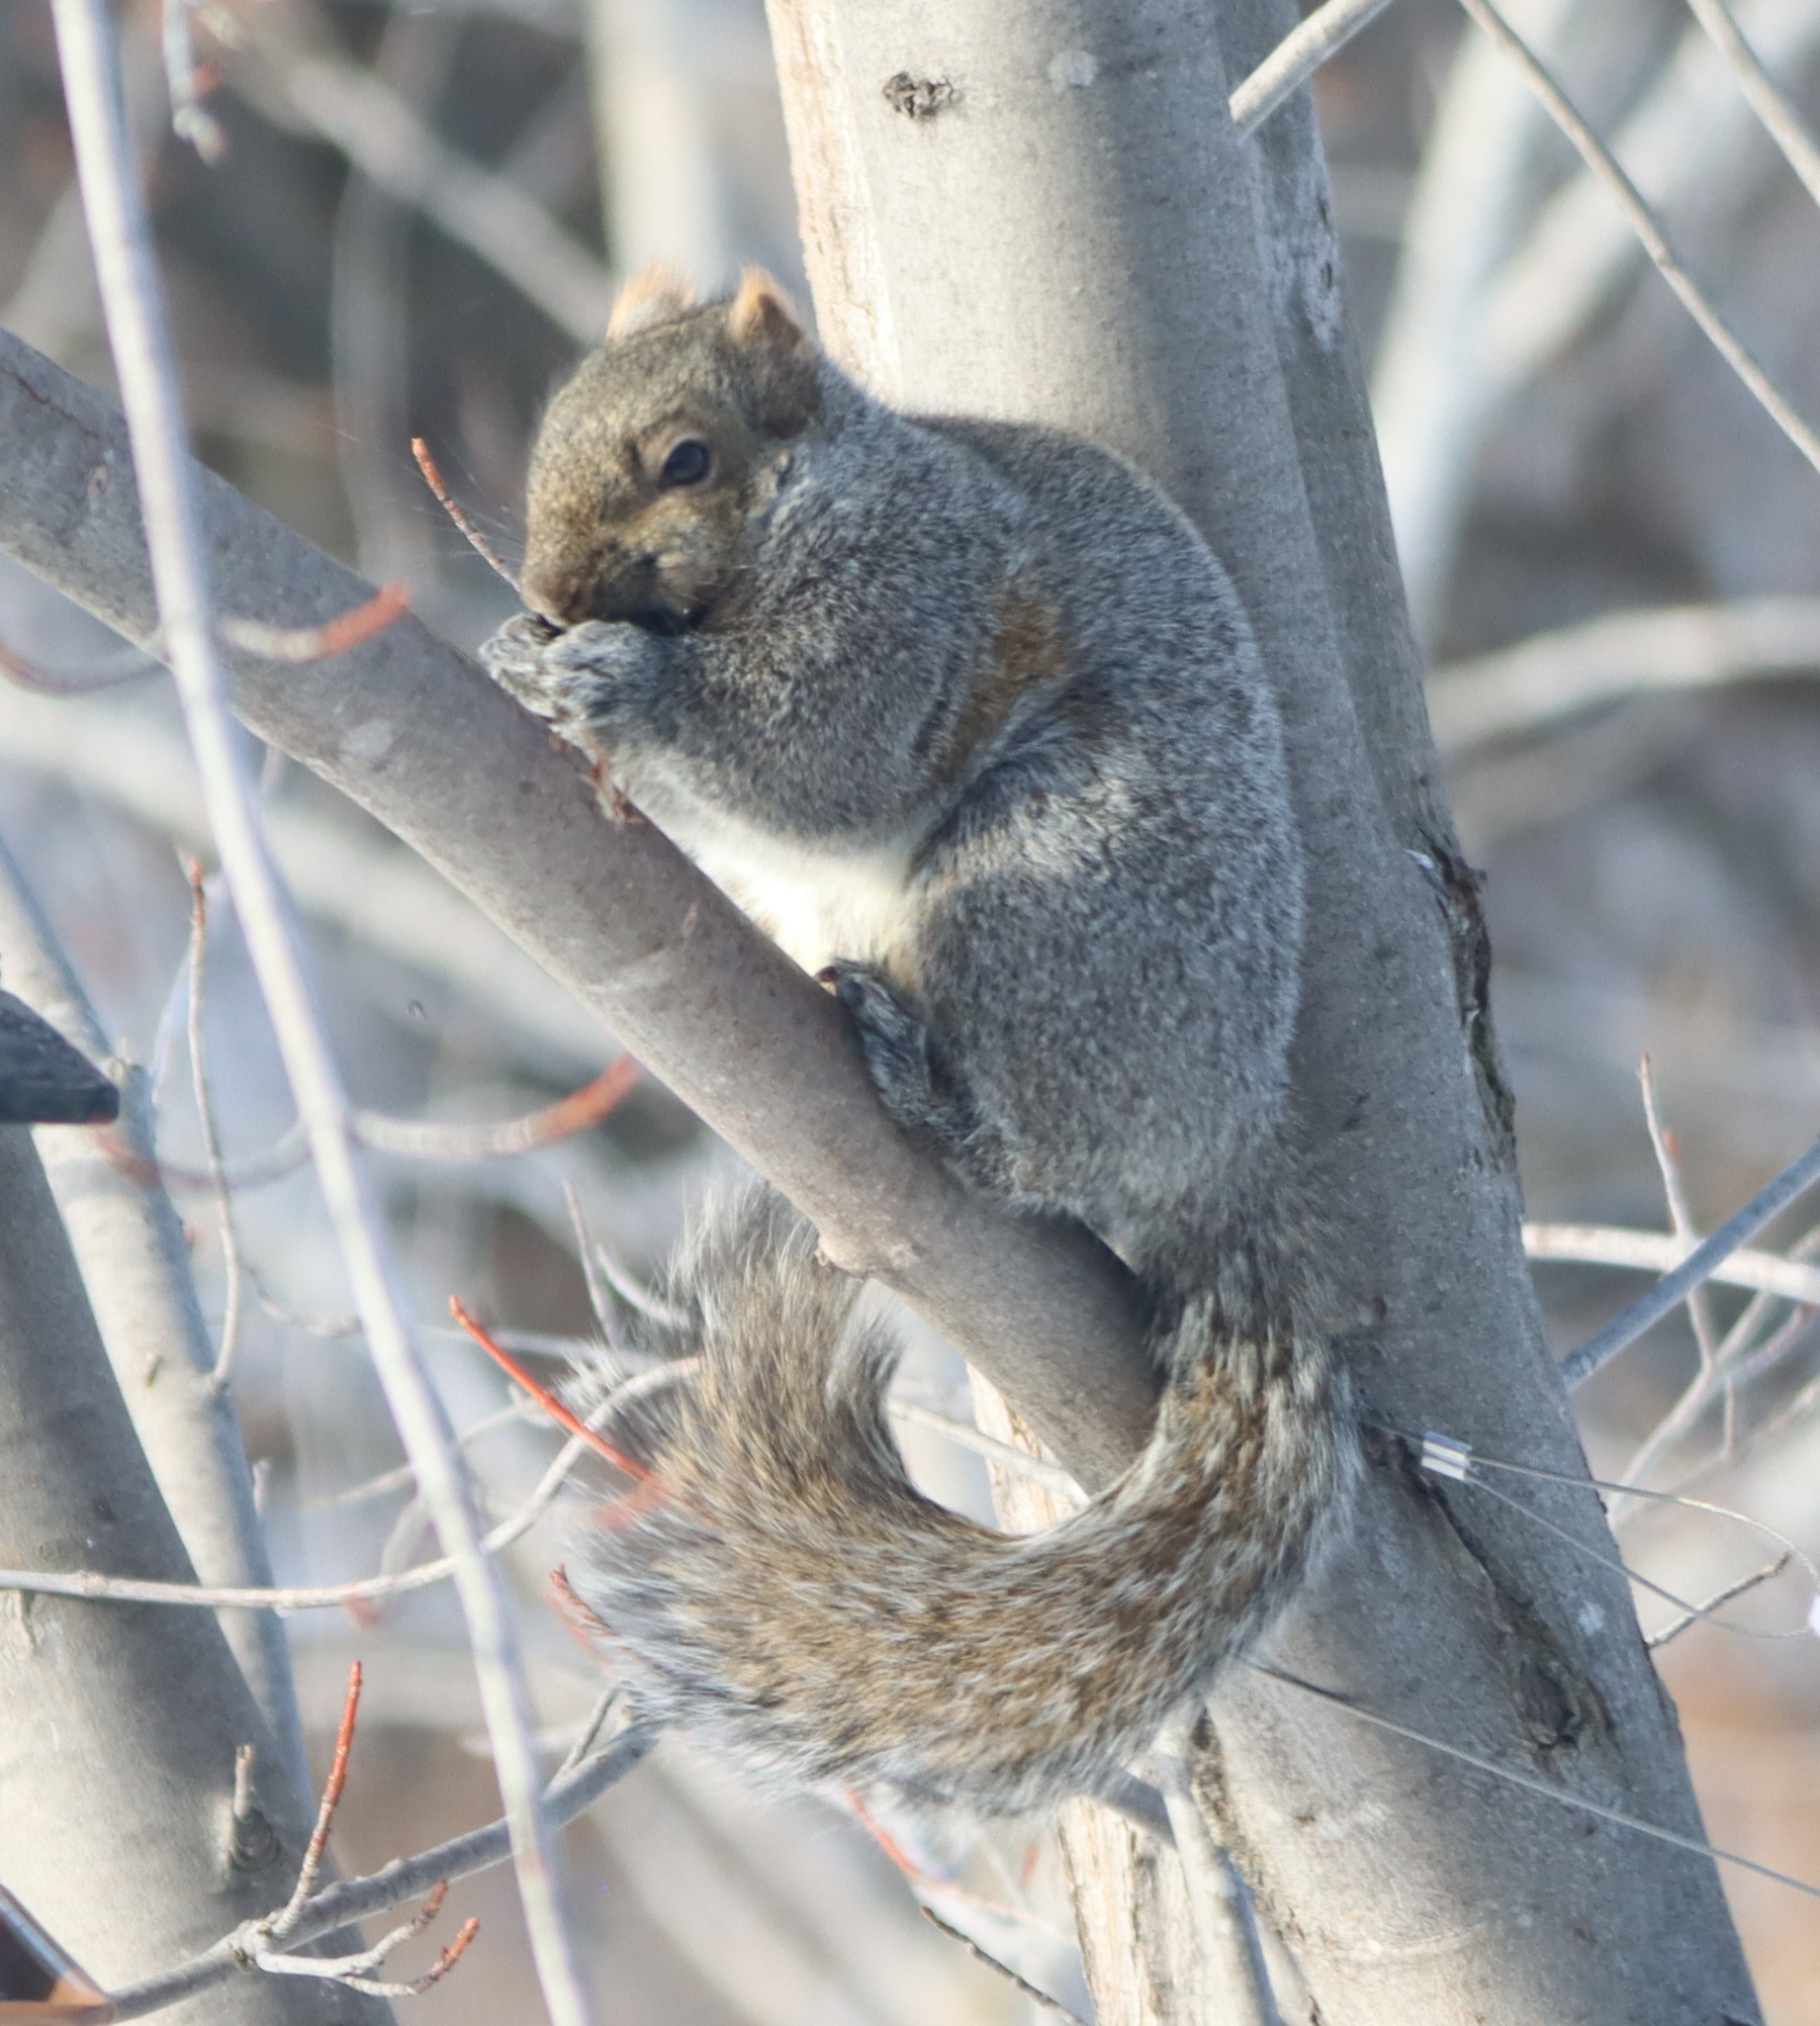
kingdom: Animalia
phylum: Chordata
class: Mammalia
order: Rodentia
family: Sciuridae
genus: Sciurus
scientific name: Sciurus carolinensis
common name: Eastern gray squirrel
